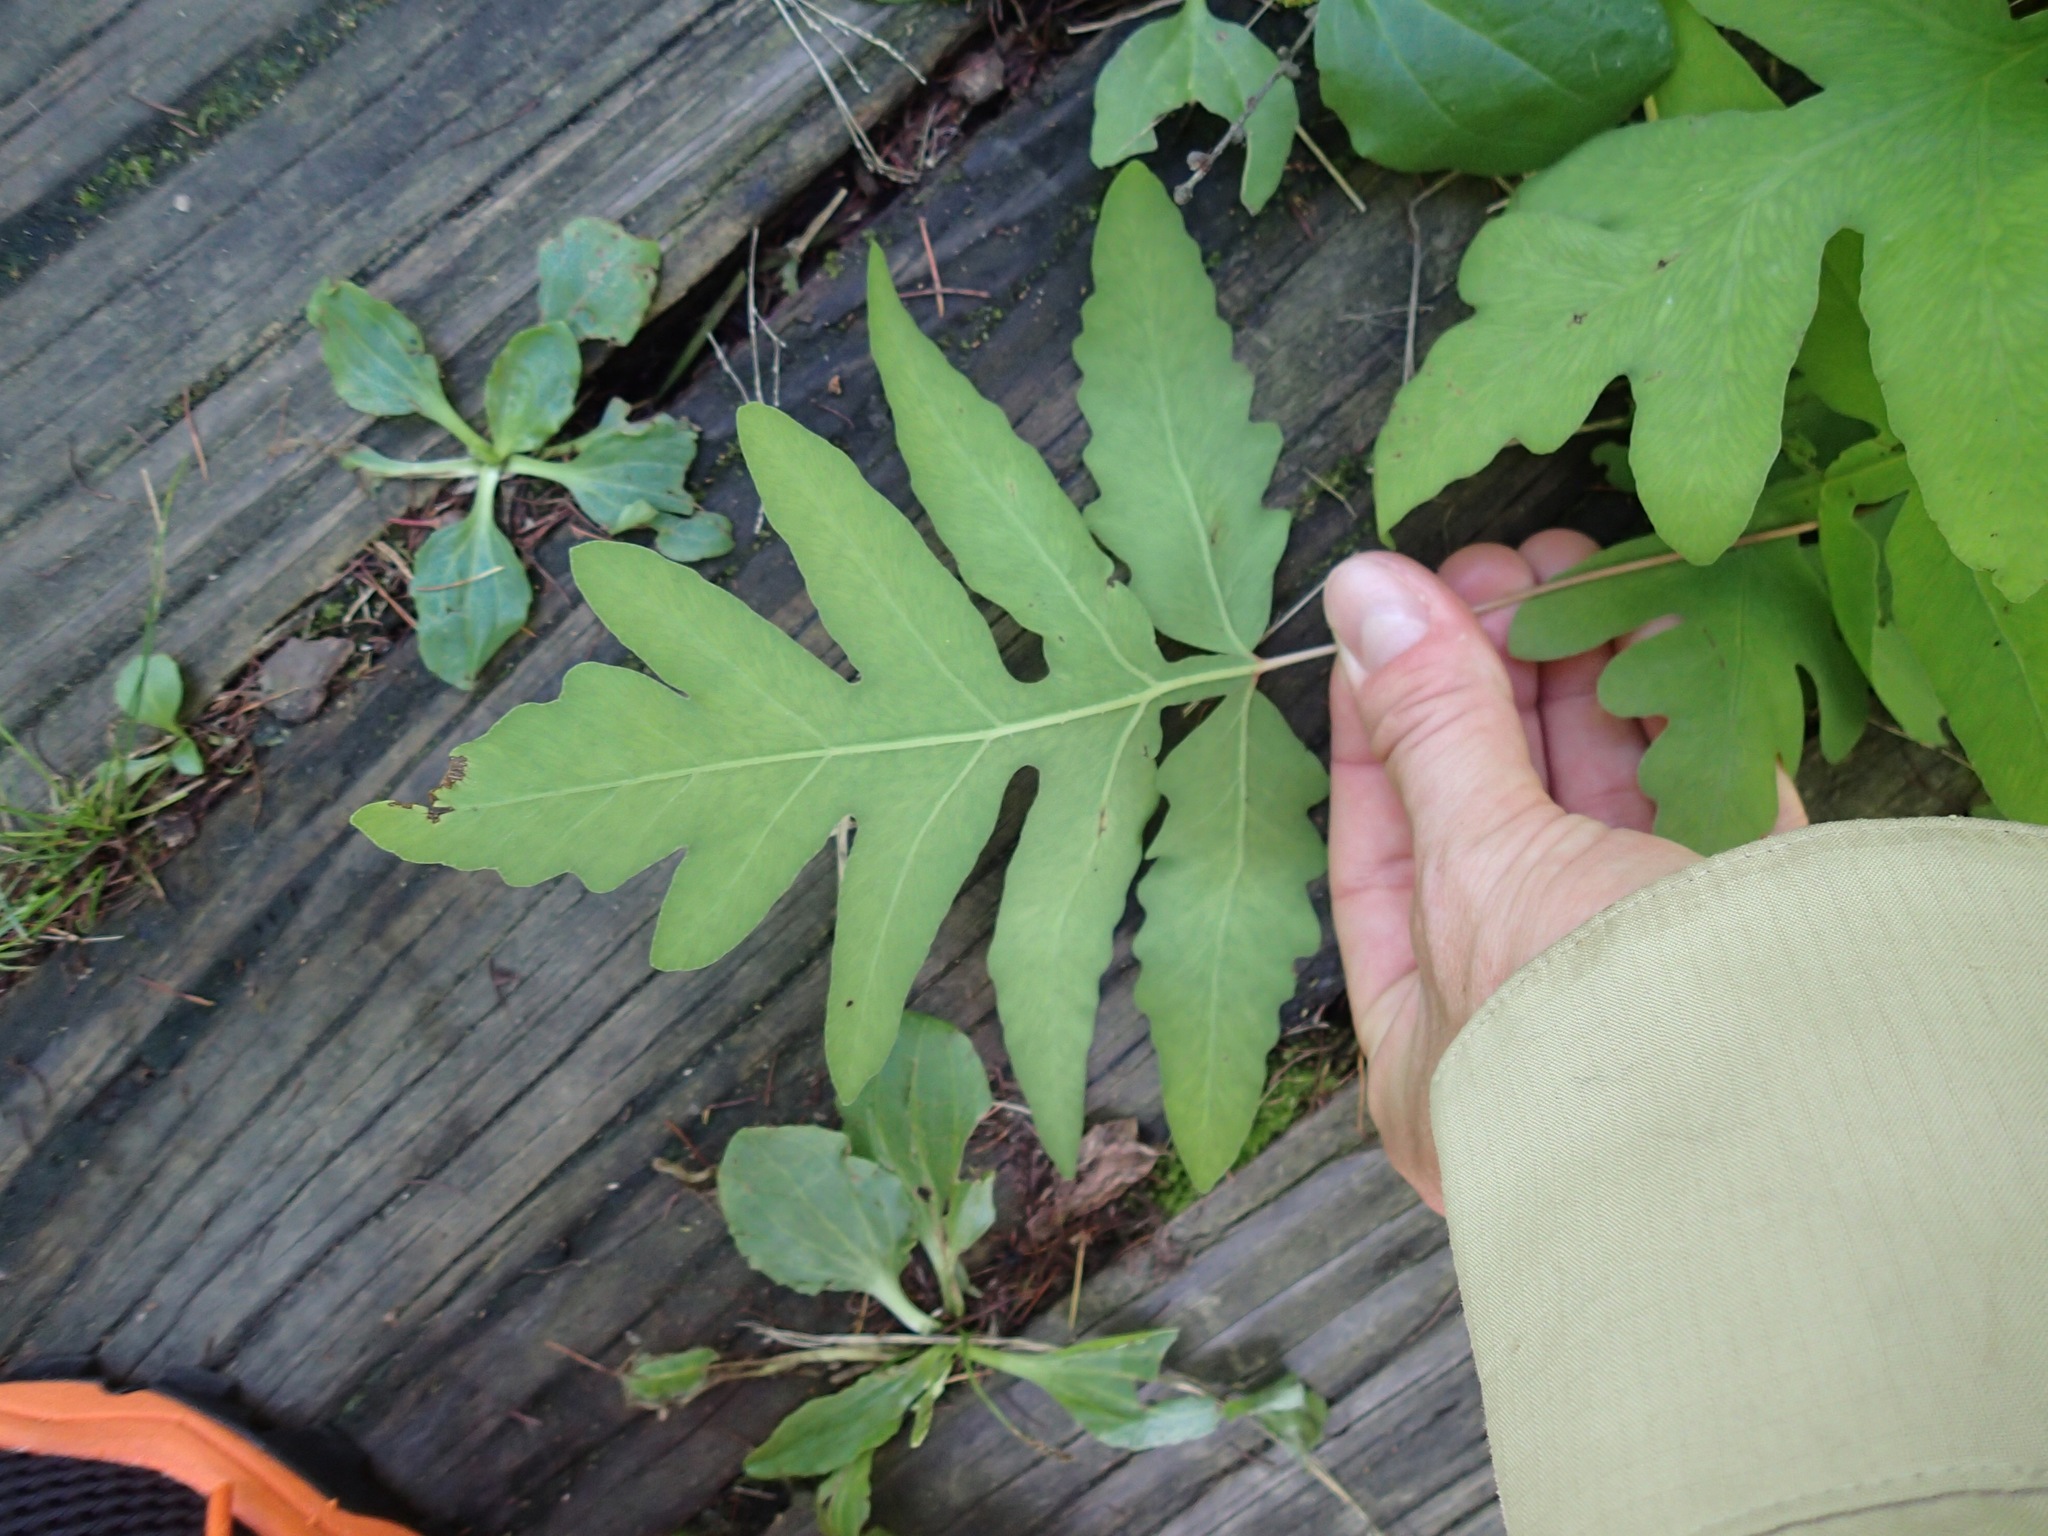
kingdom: Plantae
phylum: Tracheophyta
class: Polypodiopsida
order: Polypodiales
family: Onocleaceae
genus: Onoclea
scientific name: Onoclea sensibilis
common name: Sensitive fern
